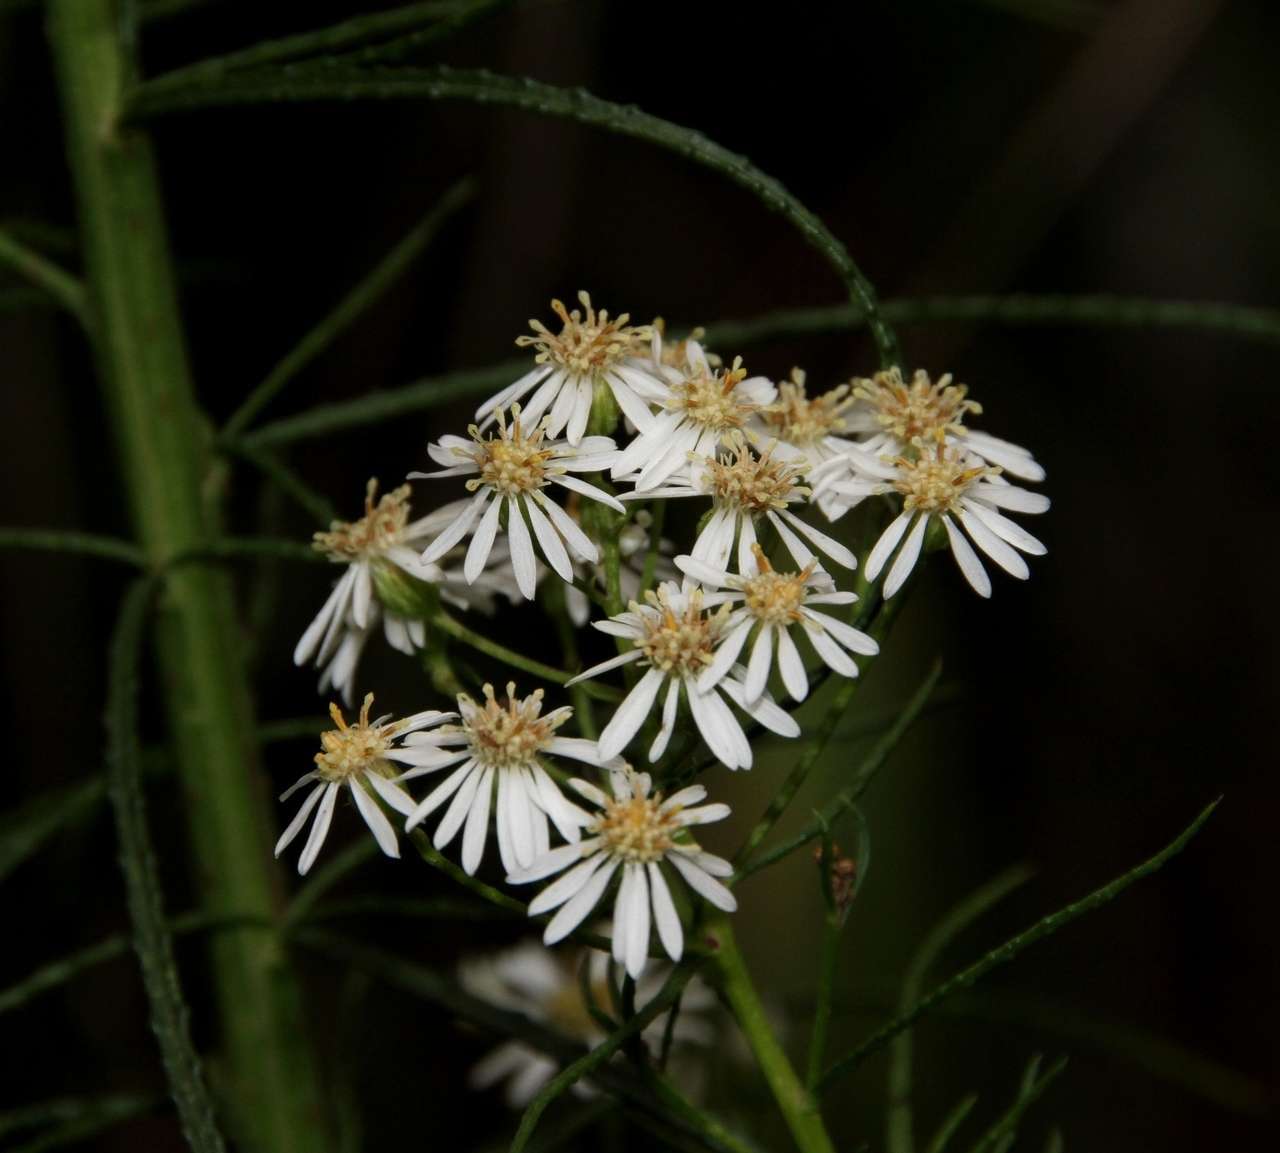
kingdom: Plantae
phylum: Tracheophyta
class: Magnoliopsida
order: Asterales
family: Asteraceae
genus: Spongotrichum
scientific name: Spongotrichum glandulosum
